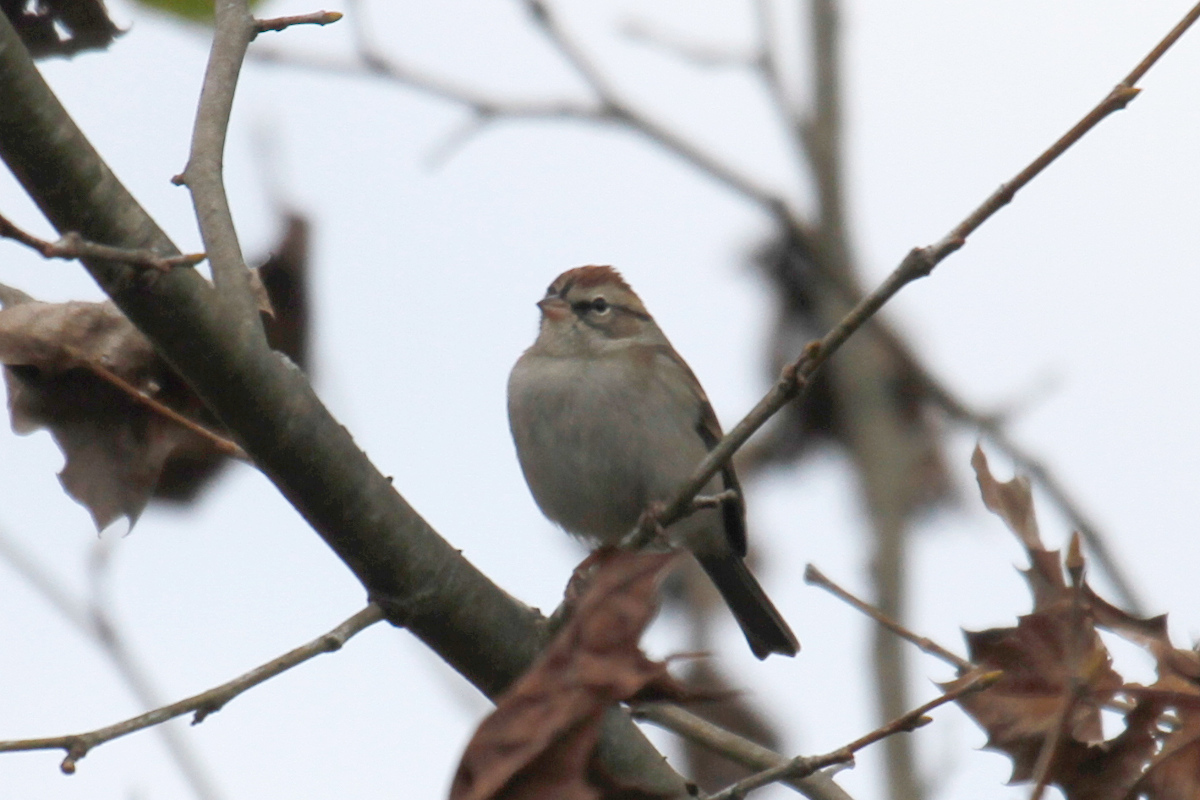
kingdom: Animalia
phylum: Chordata
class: Aves
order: Passeriformes
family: Passerellidae
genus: Spizella
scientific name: Spizella passerina
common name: Chipping sparrow
